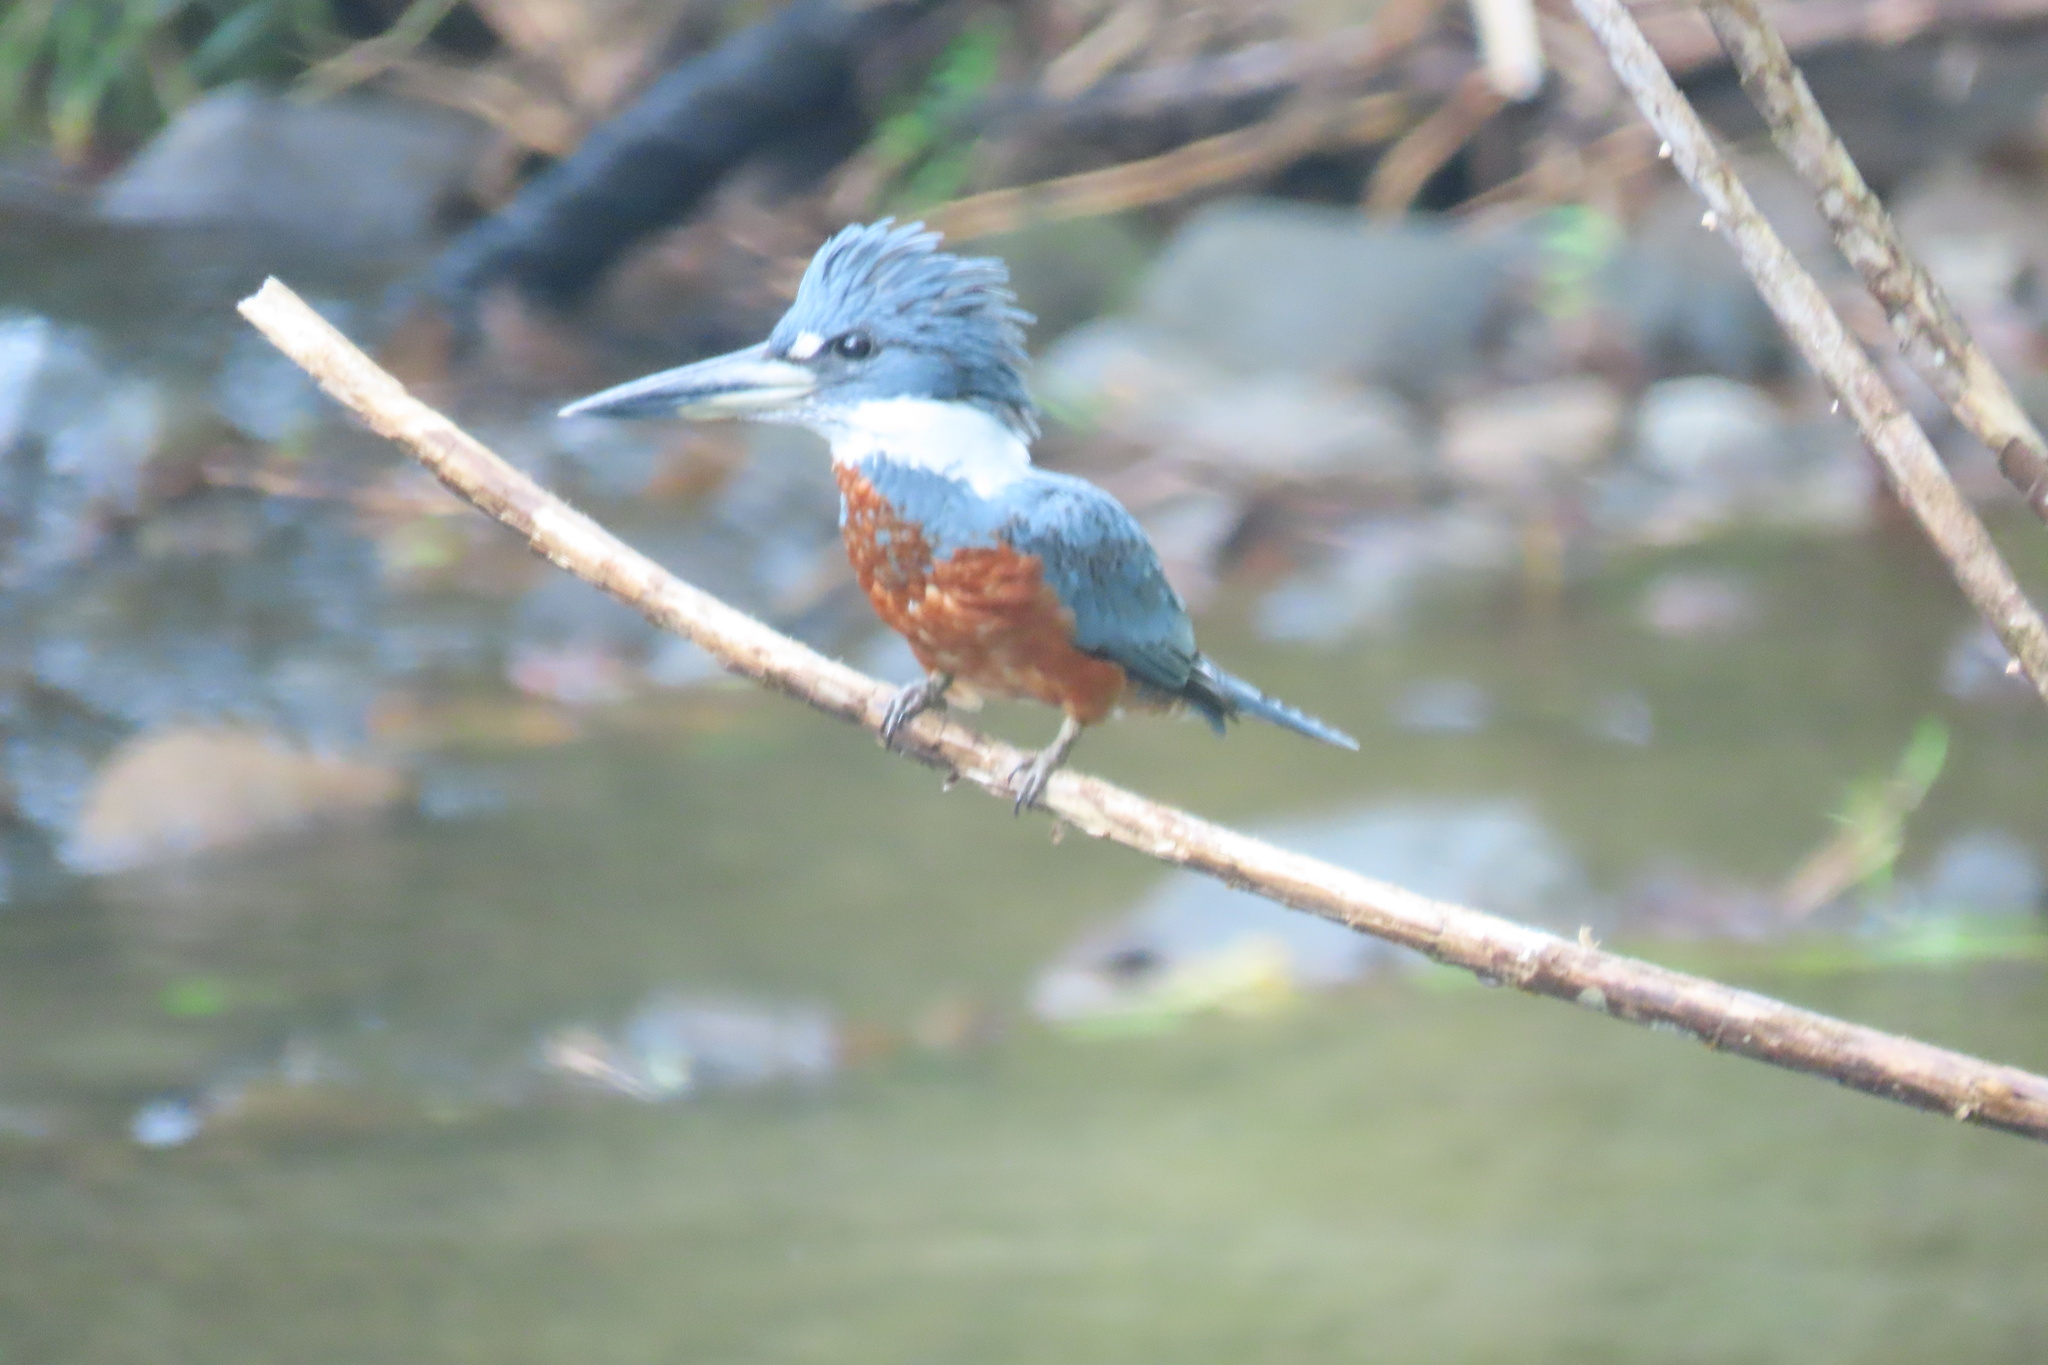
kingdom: Animalia
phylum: Chordata
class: Aves
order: Coraciiformes
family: Alcedinidae
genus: Megaceryle
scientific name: Megaceryle torquata
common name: Ringed kingfisher
